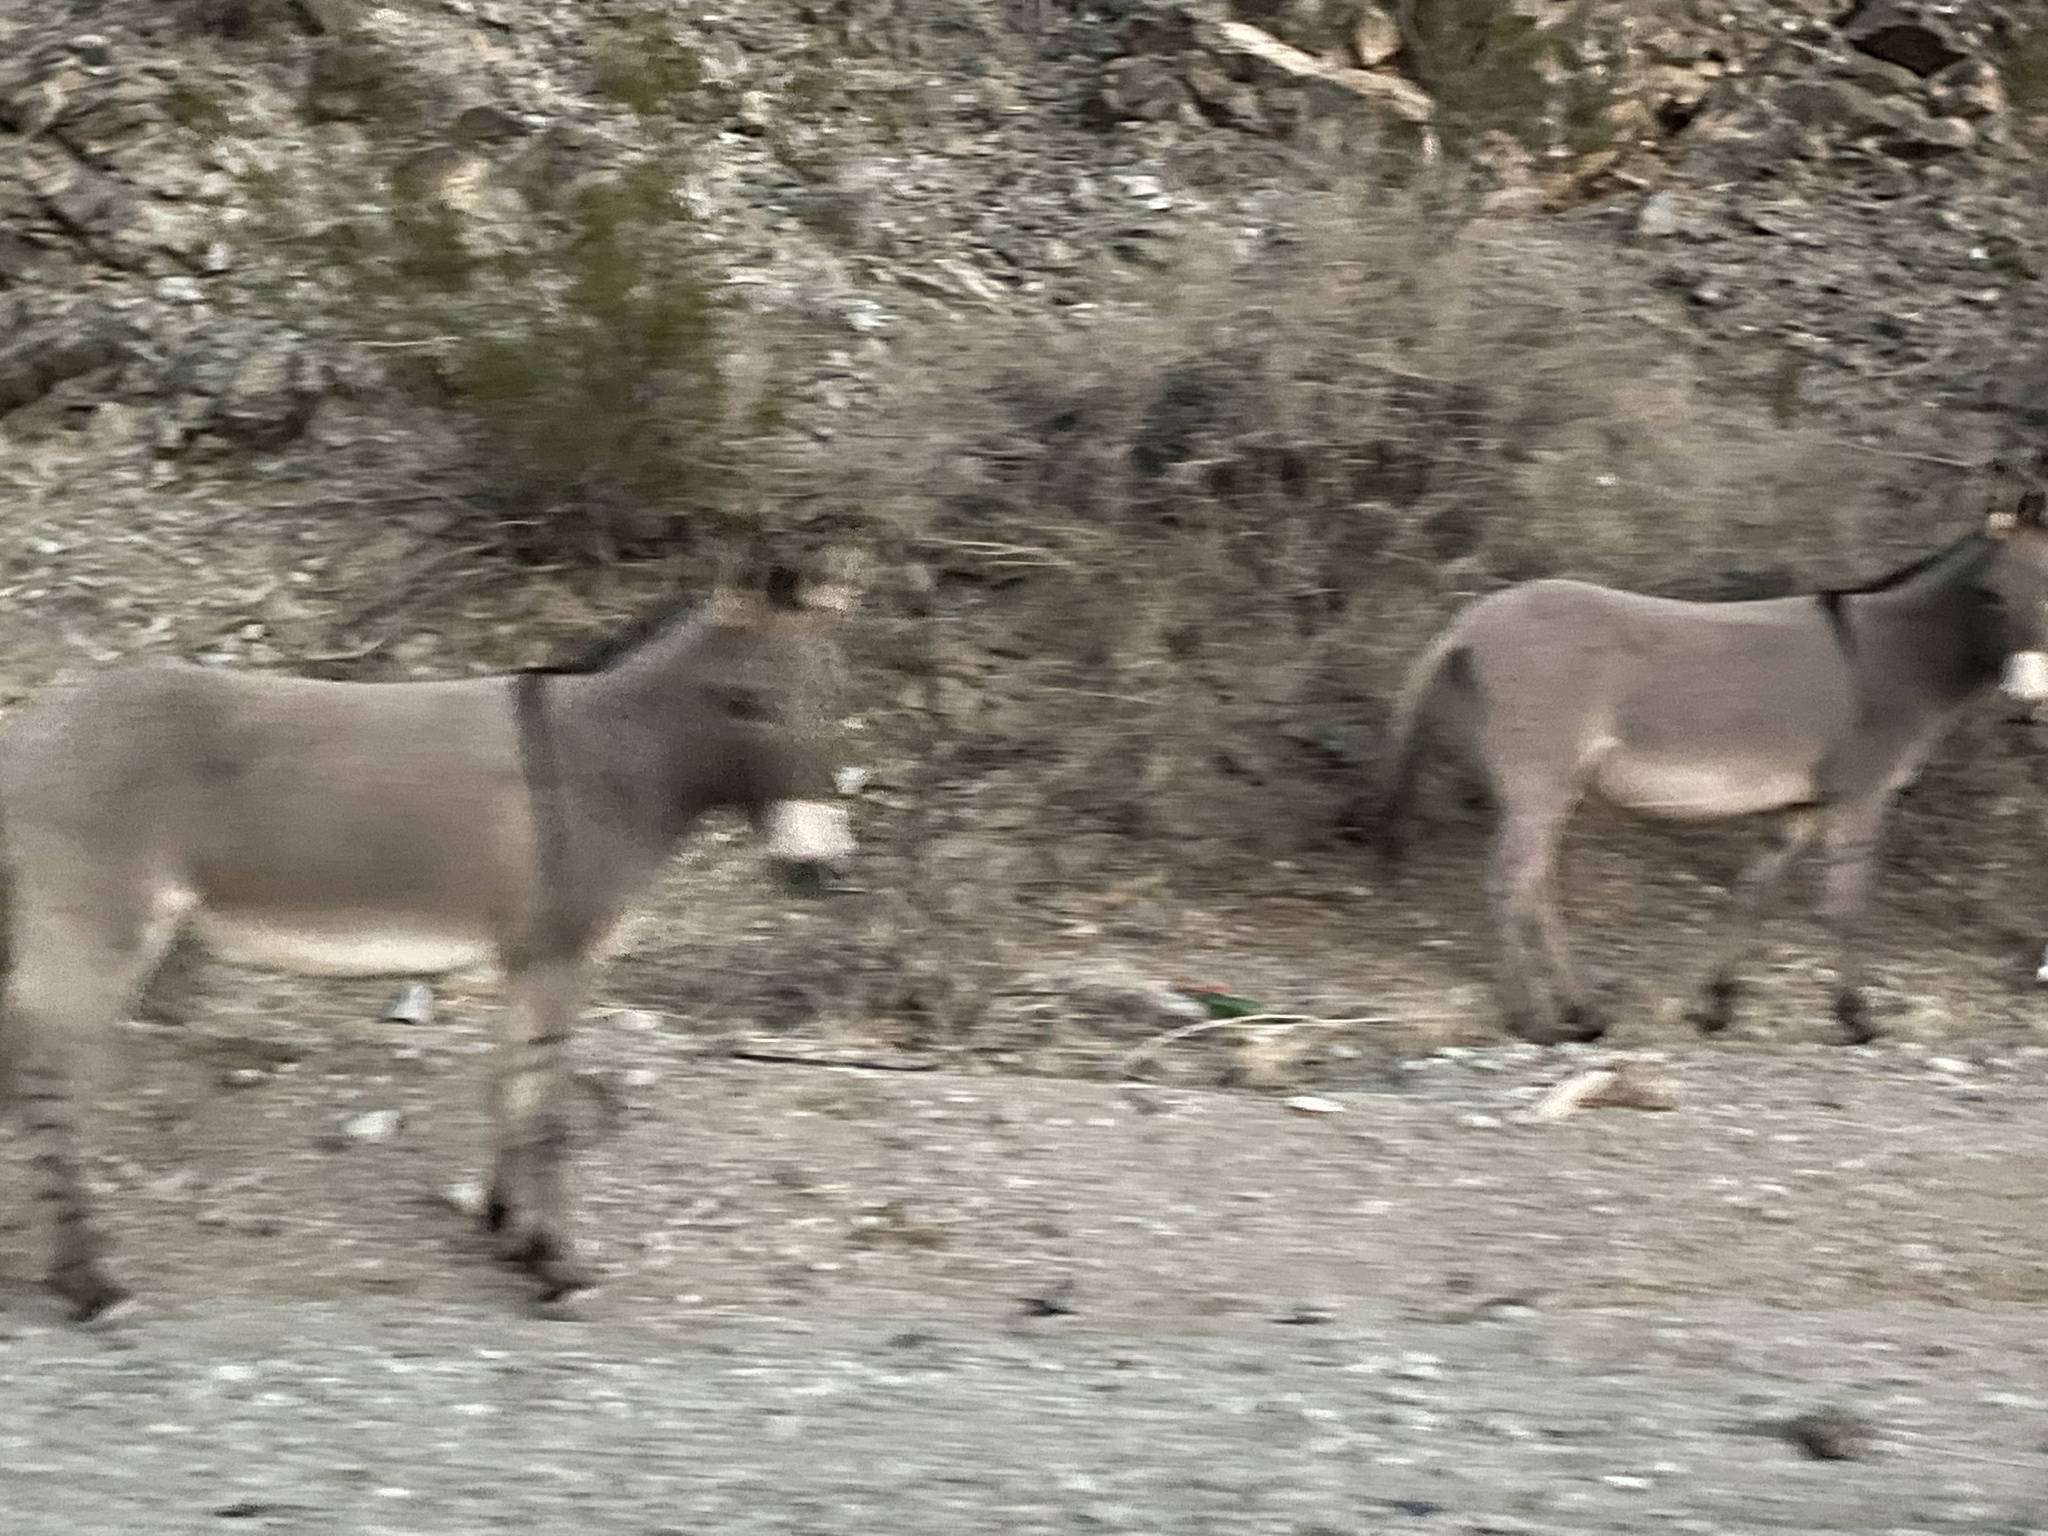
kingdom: Animalia
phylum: Chordata
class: Mammalia
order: Perissodactyla
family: Equidae
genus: Equus
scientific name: Equus asinus
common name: Ass
